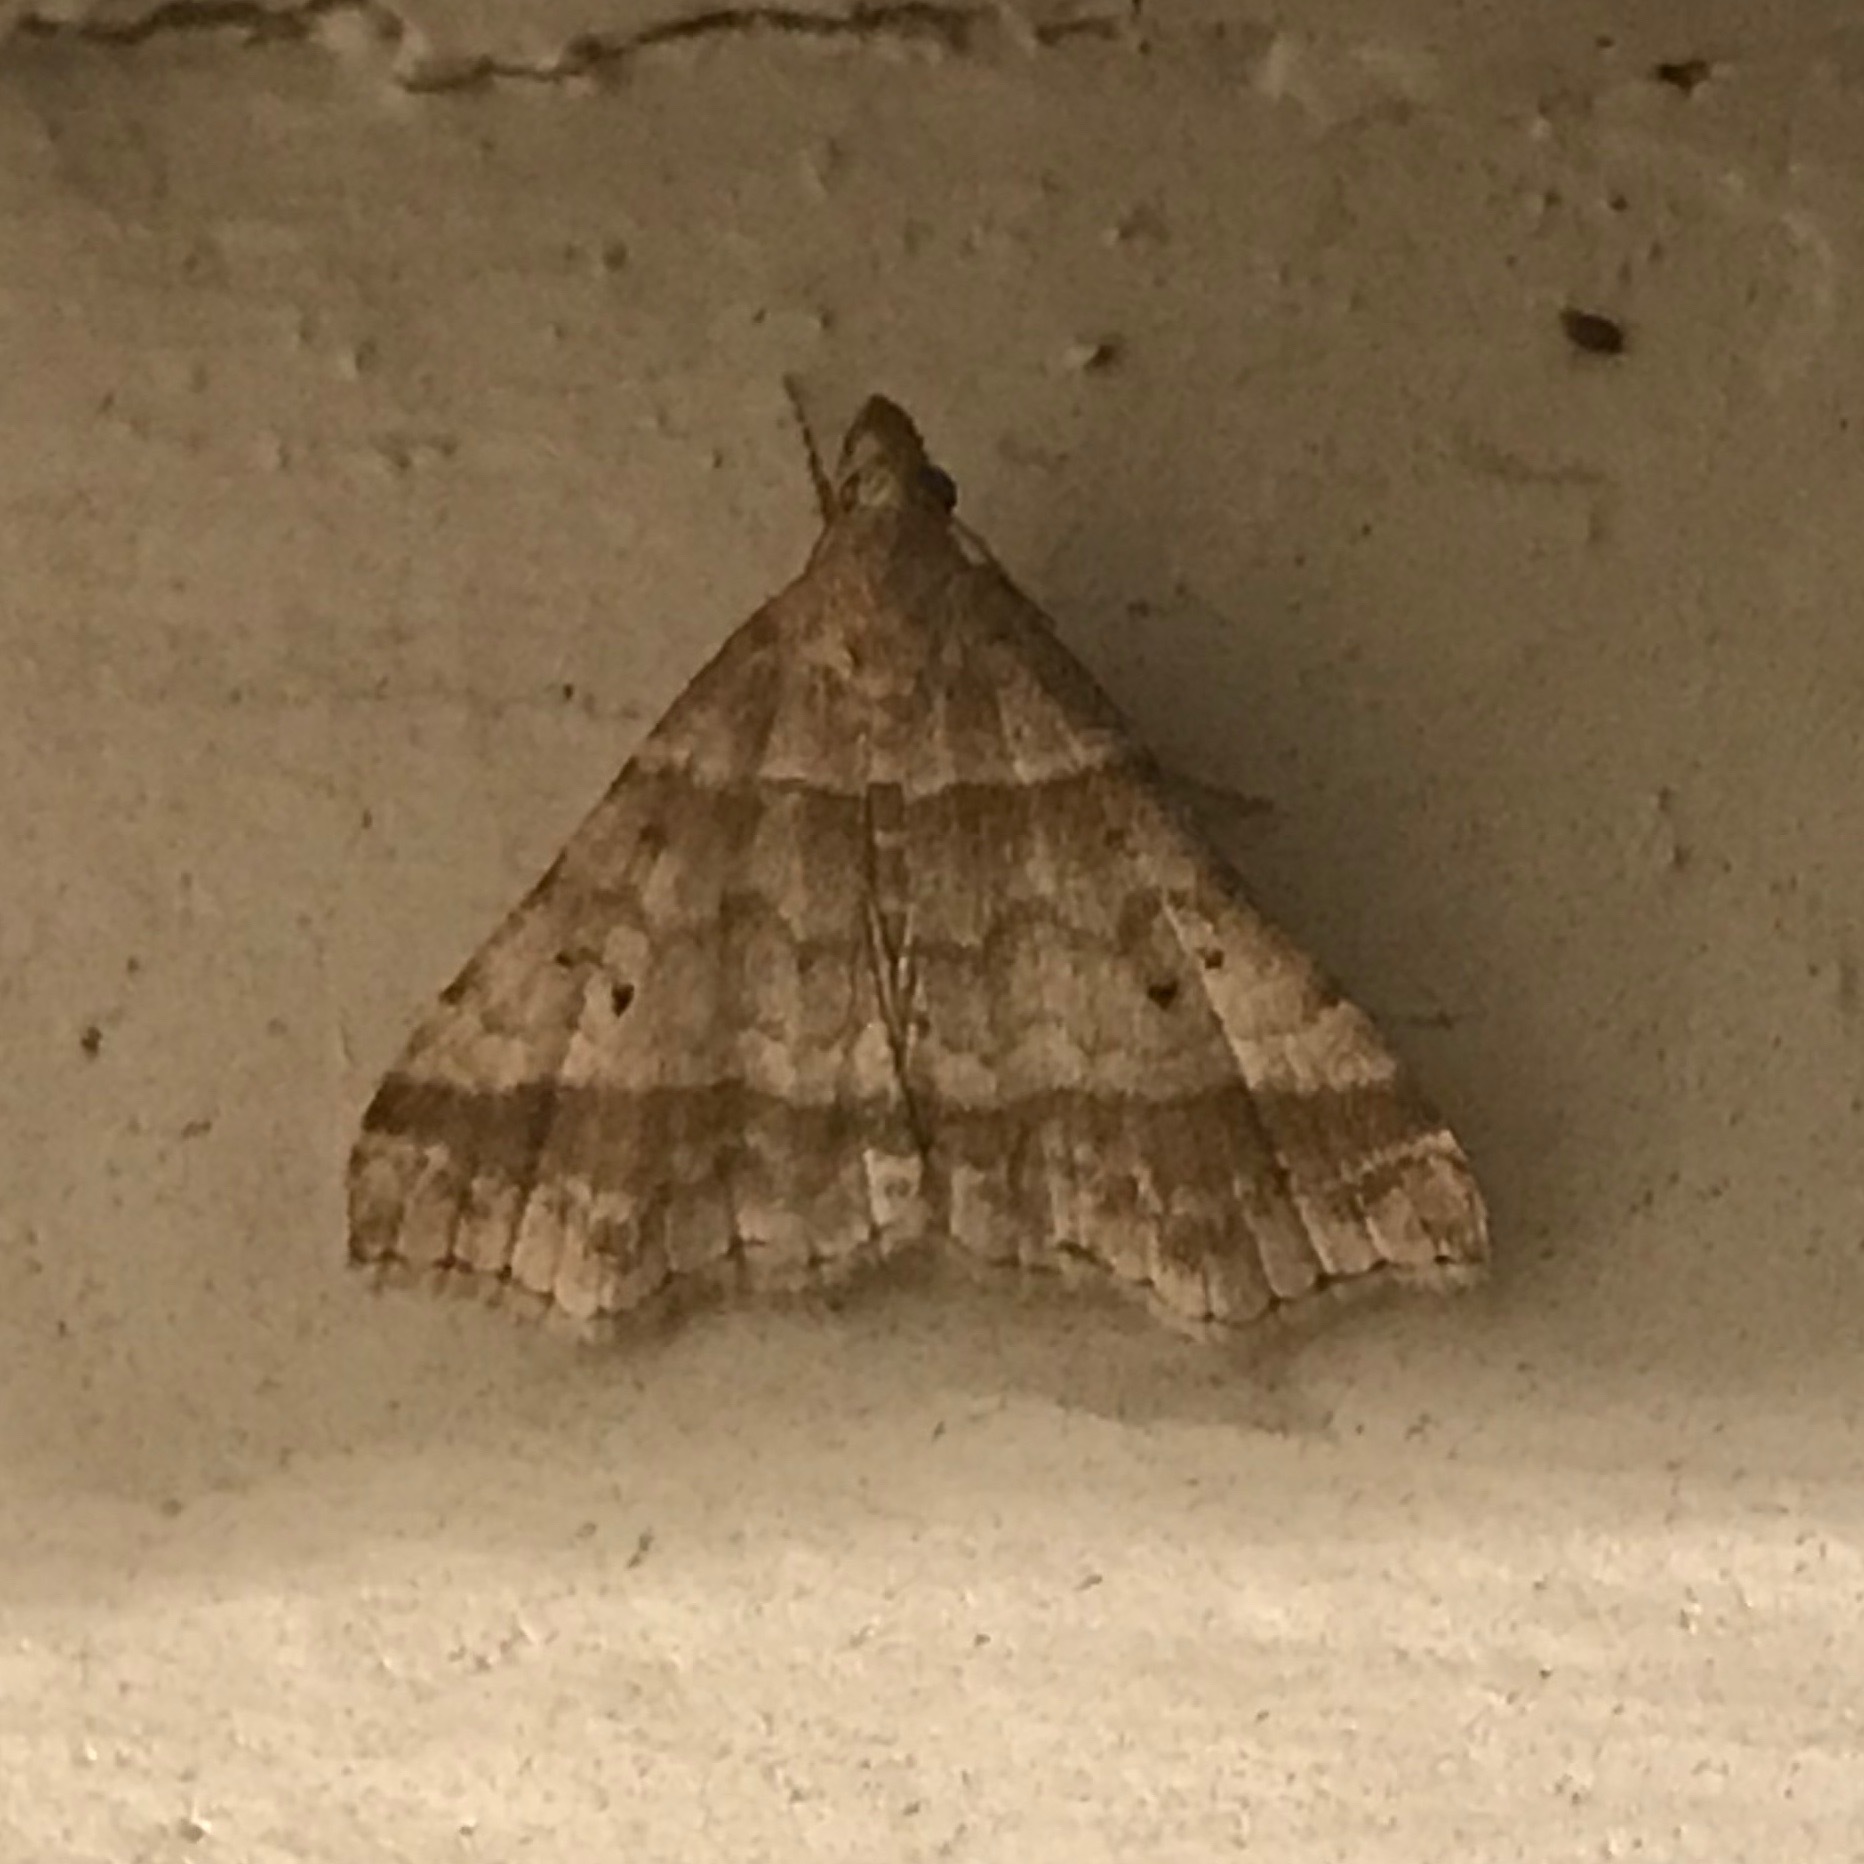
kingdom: Animalia
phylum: Arthropoda
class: Insecta
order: Lepidoptera
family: Erebidae
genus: Phaeolita
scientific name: Phaeolita pyramusalis
